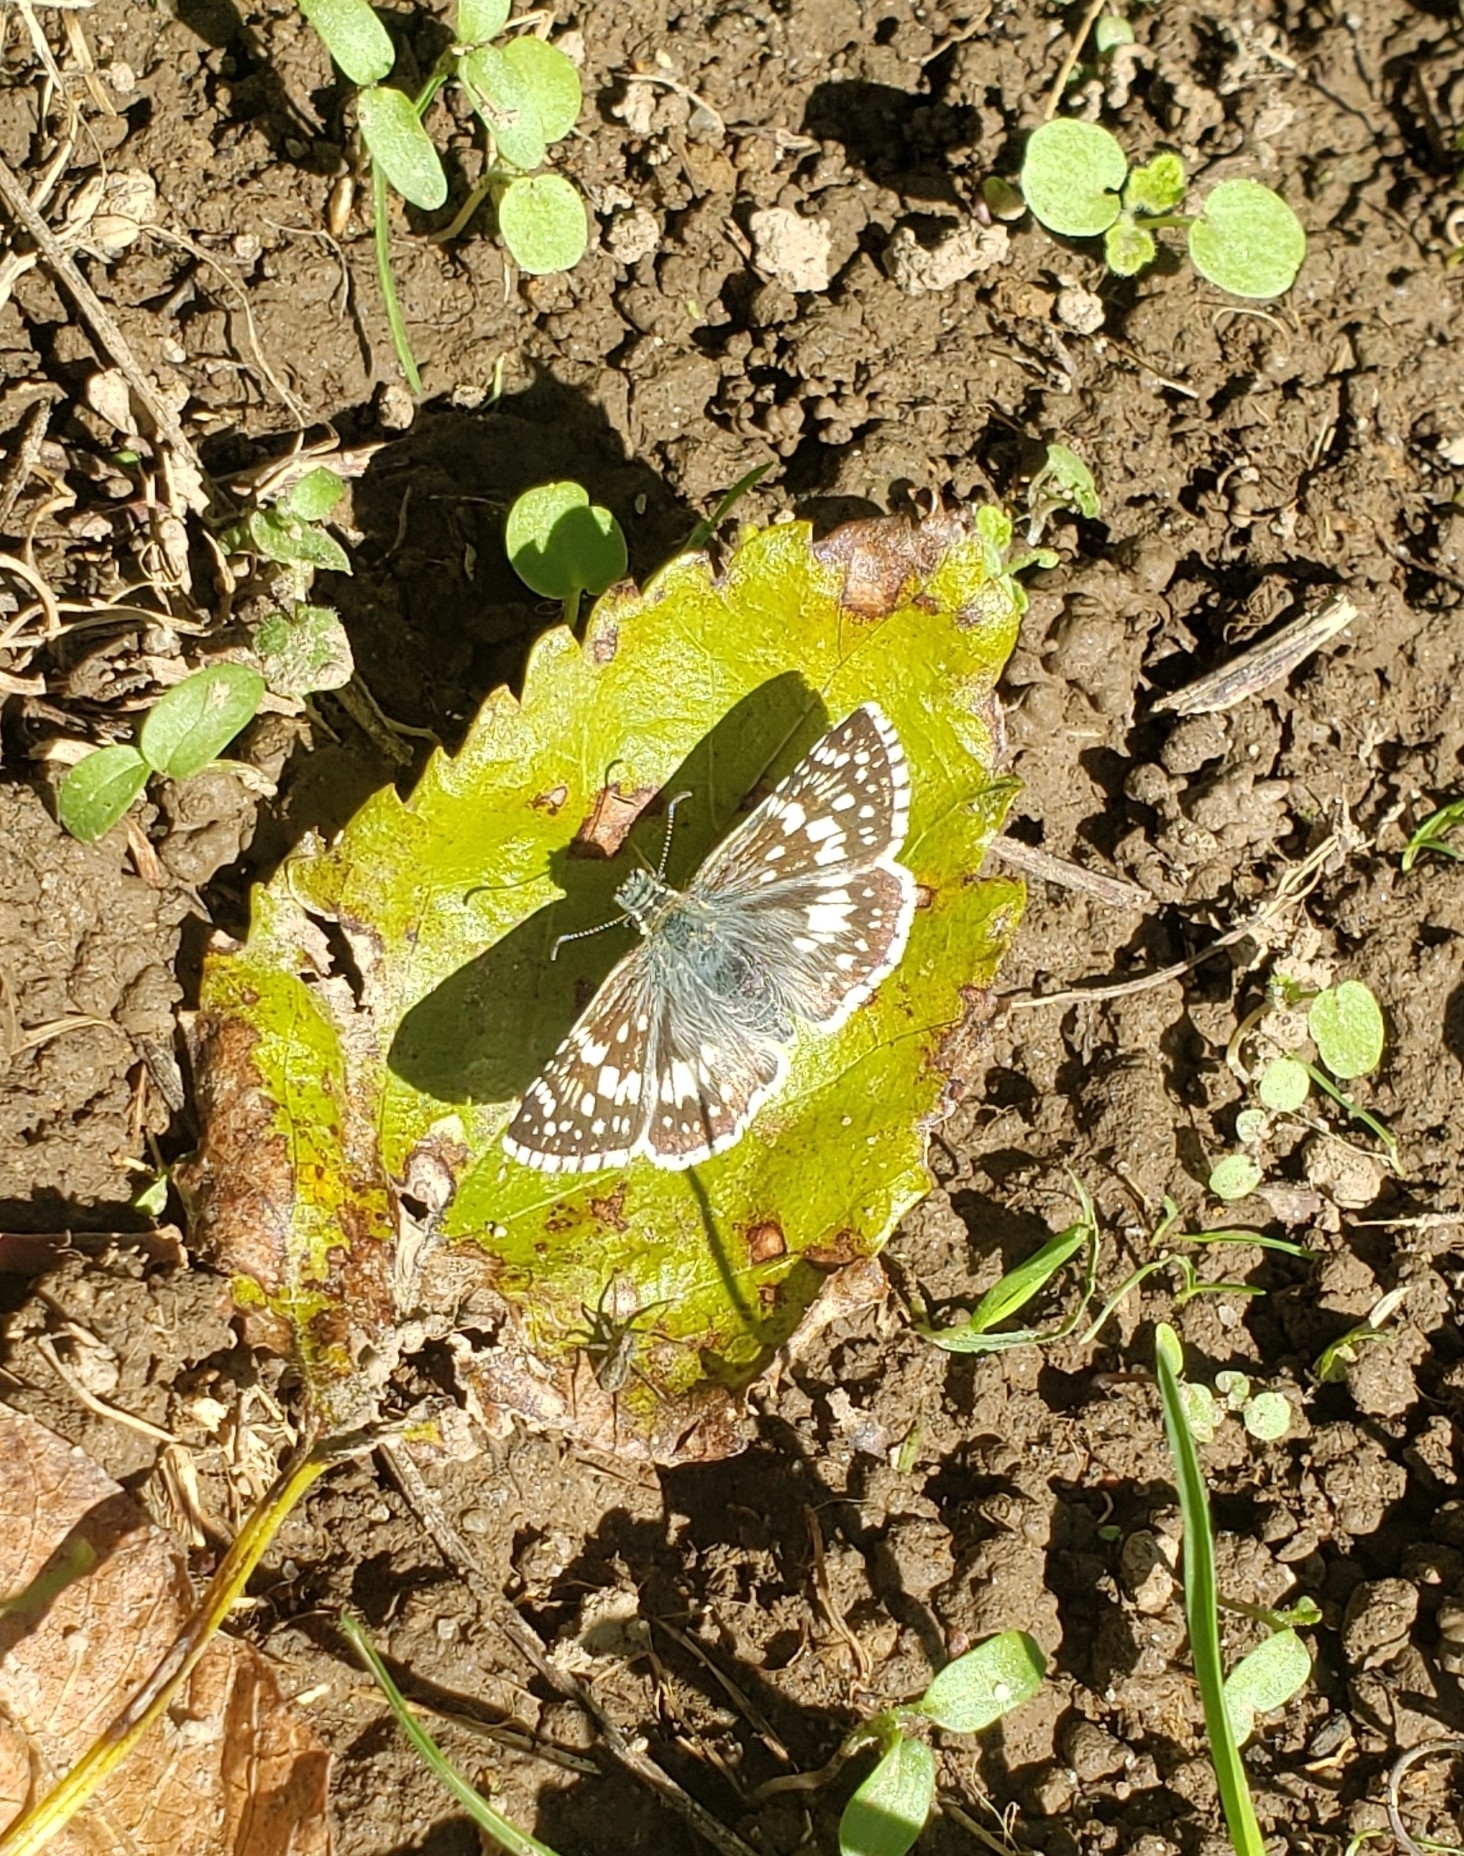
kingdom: Animalia
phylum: Arthropoda
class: Insecta
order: Lepidoptera
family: Hesperiidae
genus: Burnsius
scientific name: Burnsius communis
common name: Common checkered-skipper
